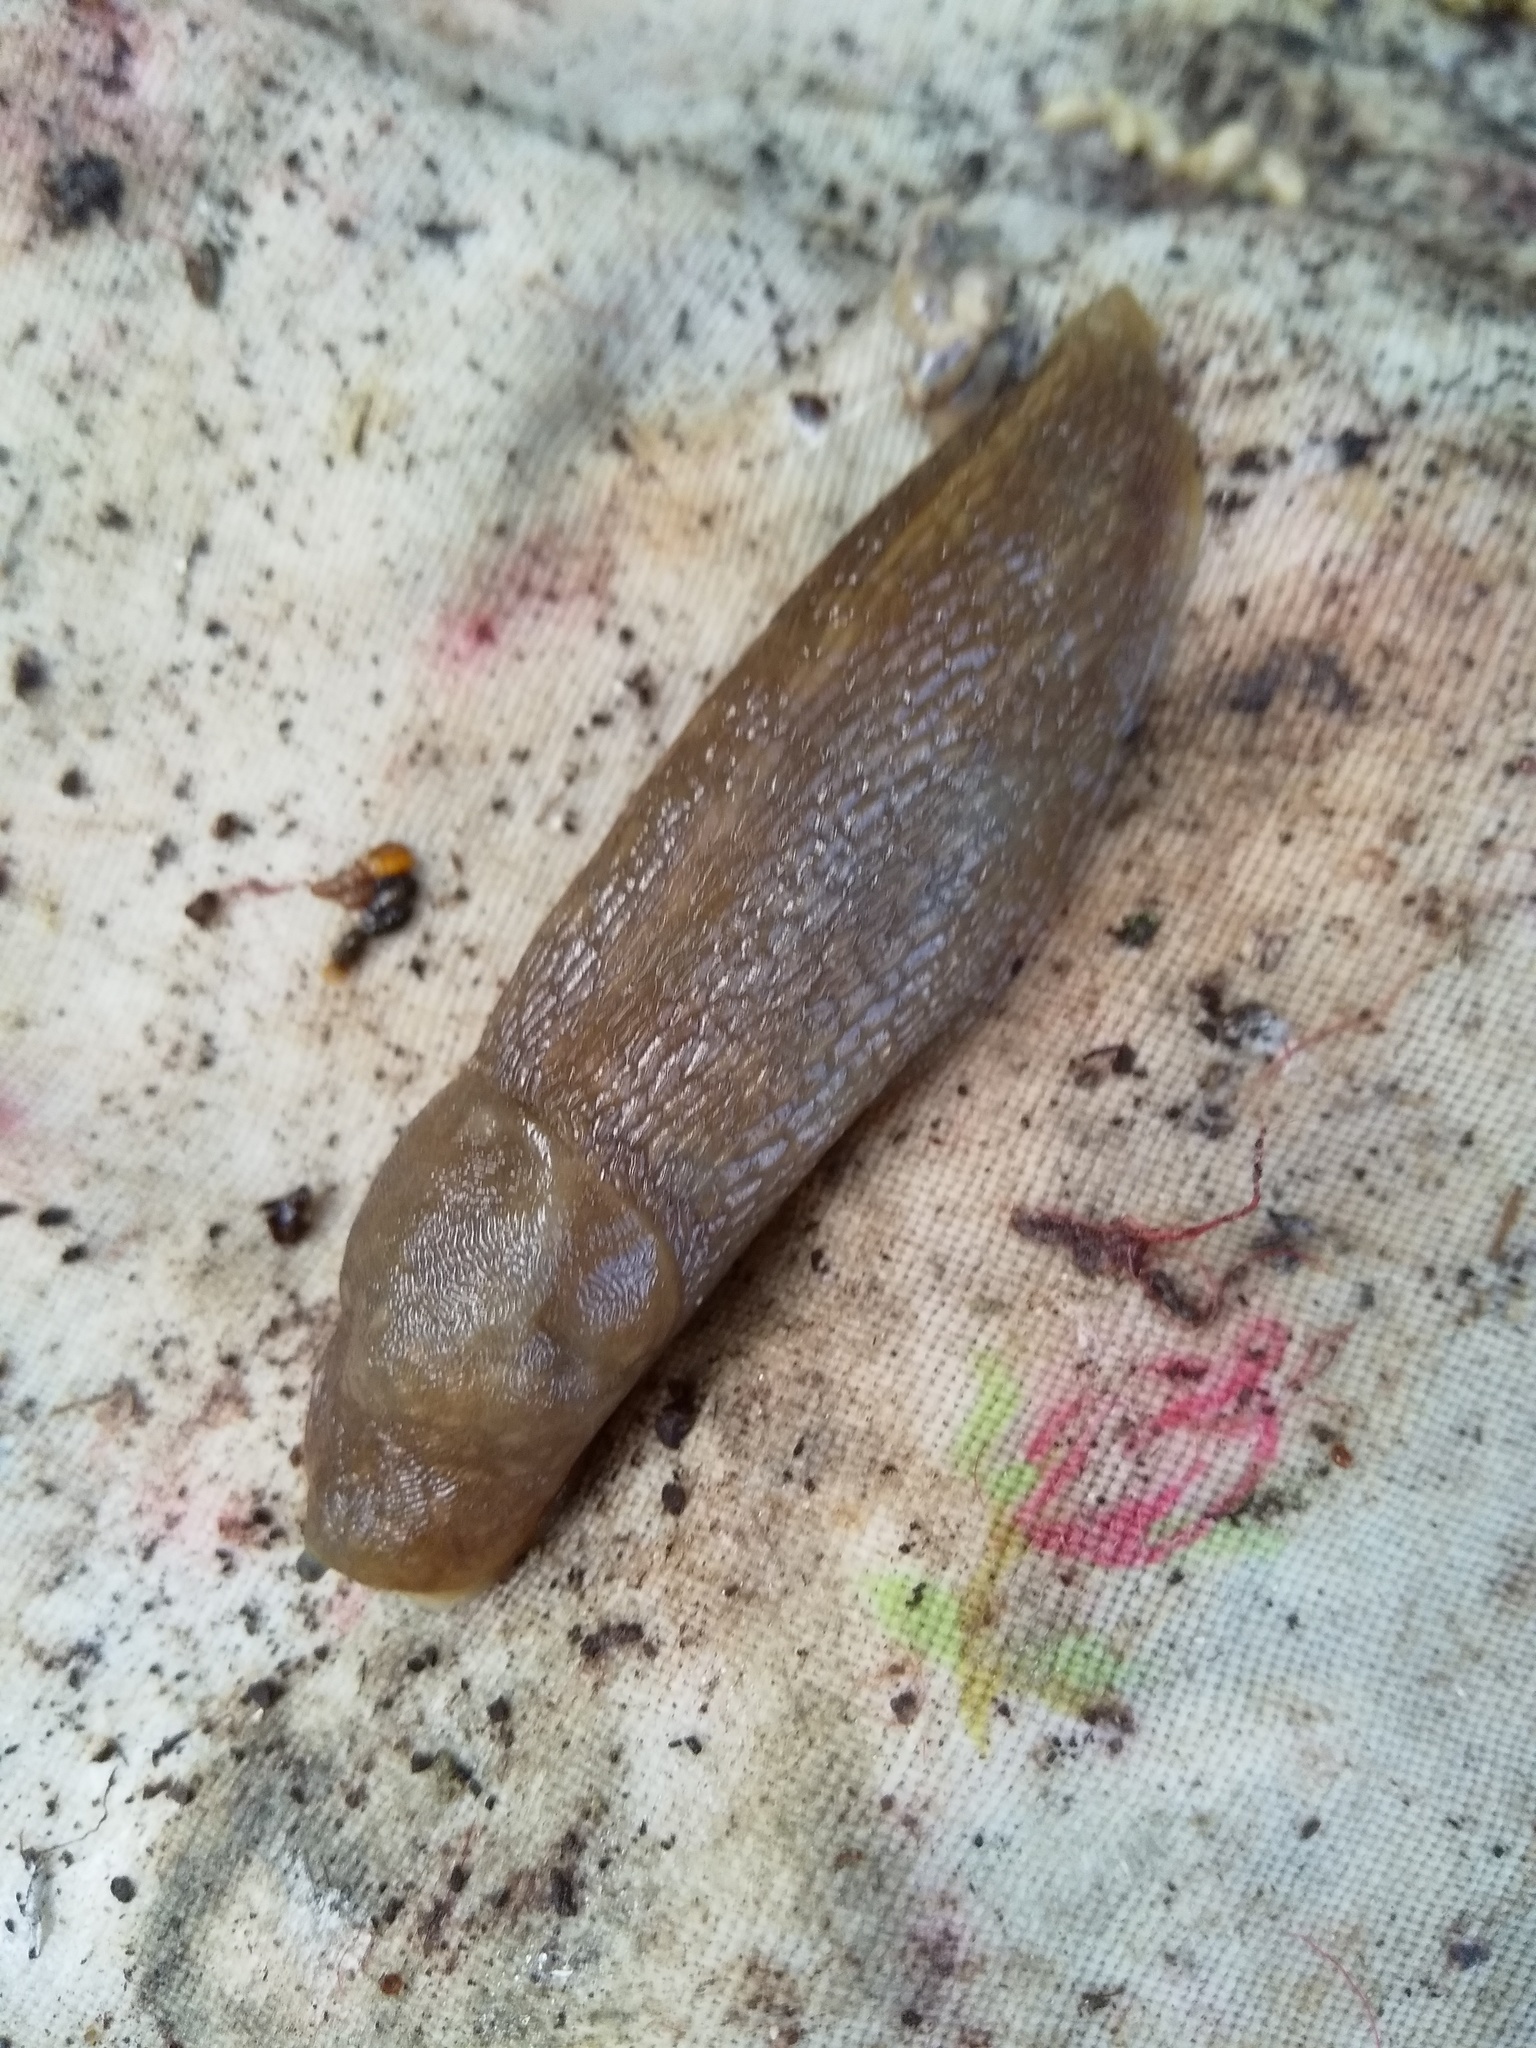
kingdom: Animalia
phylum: Mollusca
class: Gastropoda
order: Stylommatophora
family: Limacidae
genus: Limacus
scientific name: Limacus flavus
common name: Yellow gardenslug
